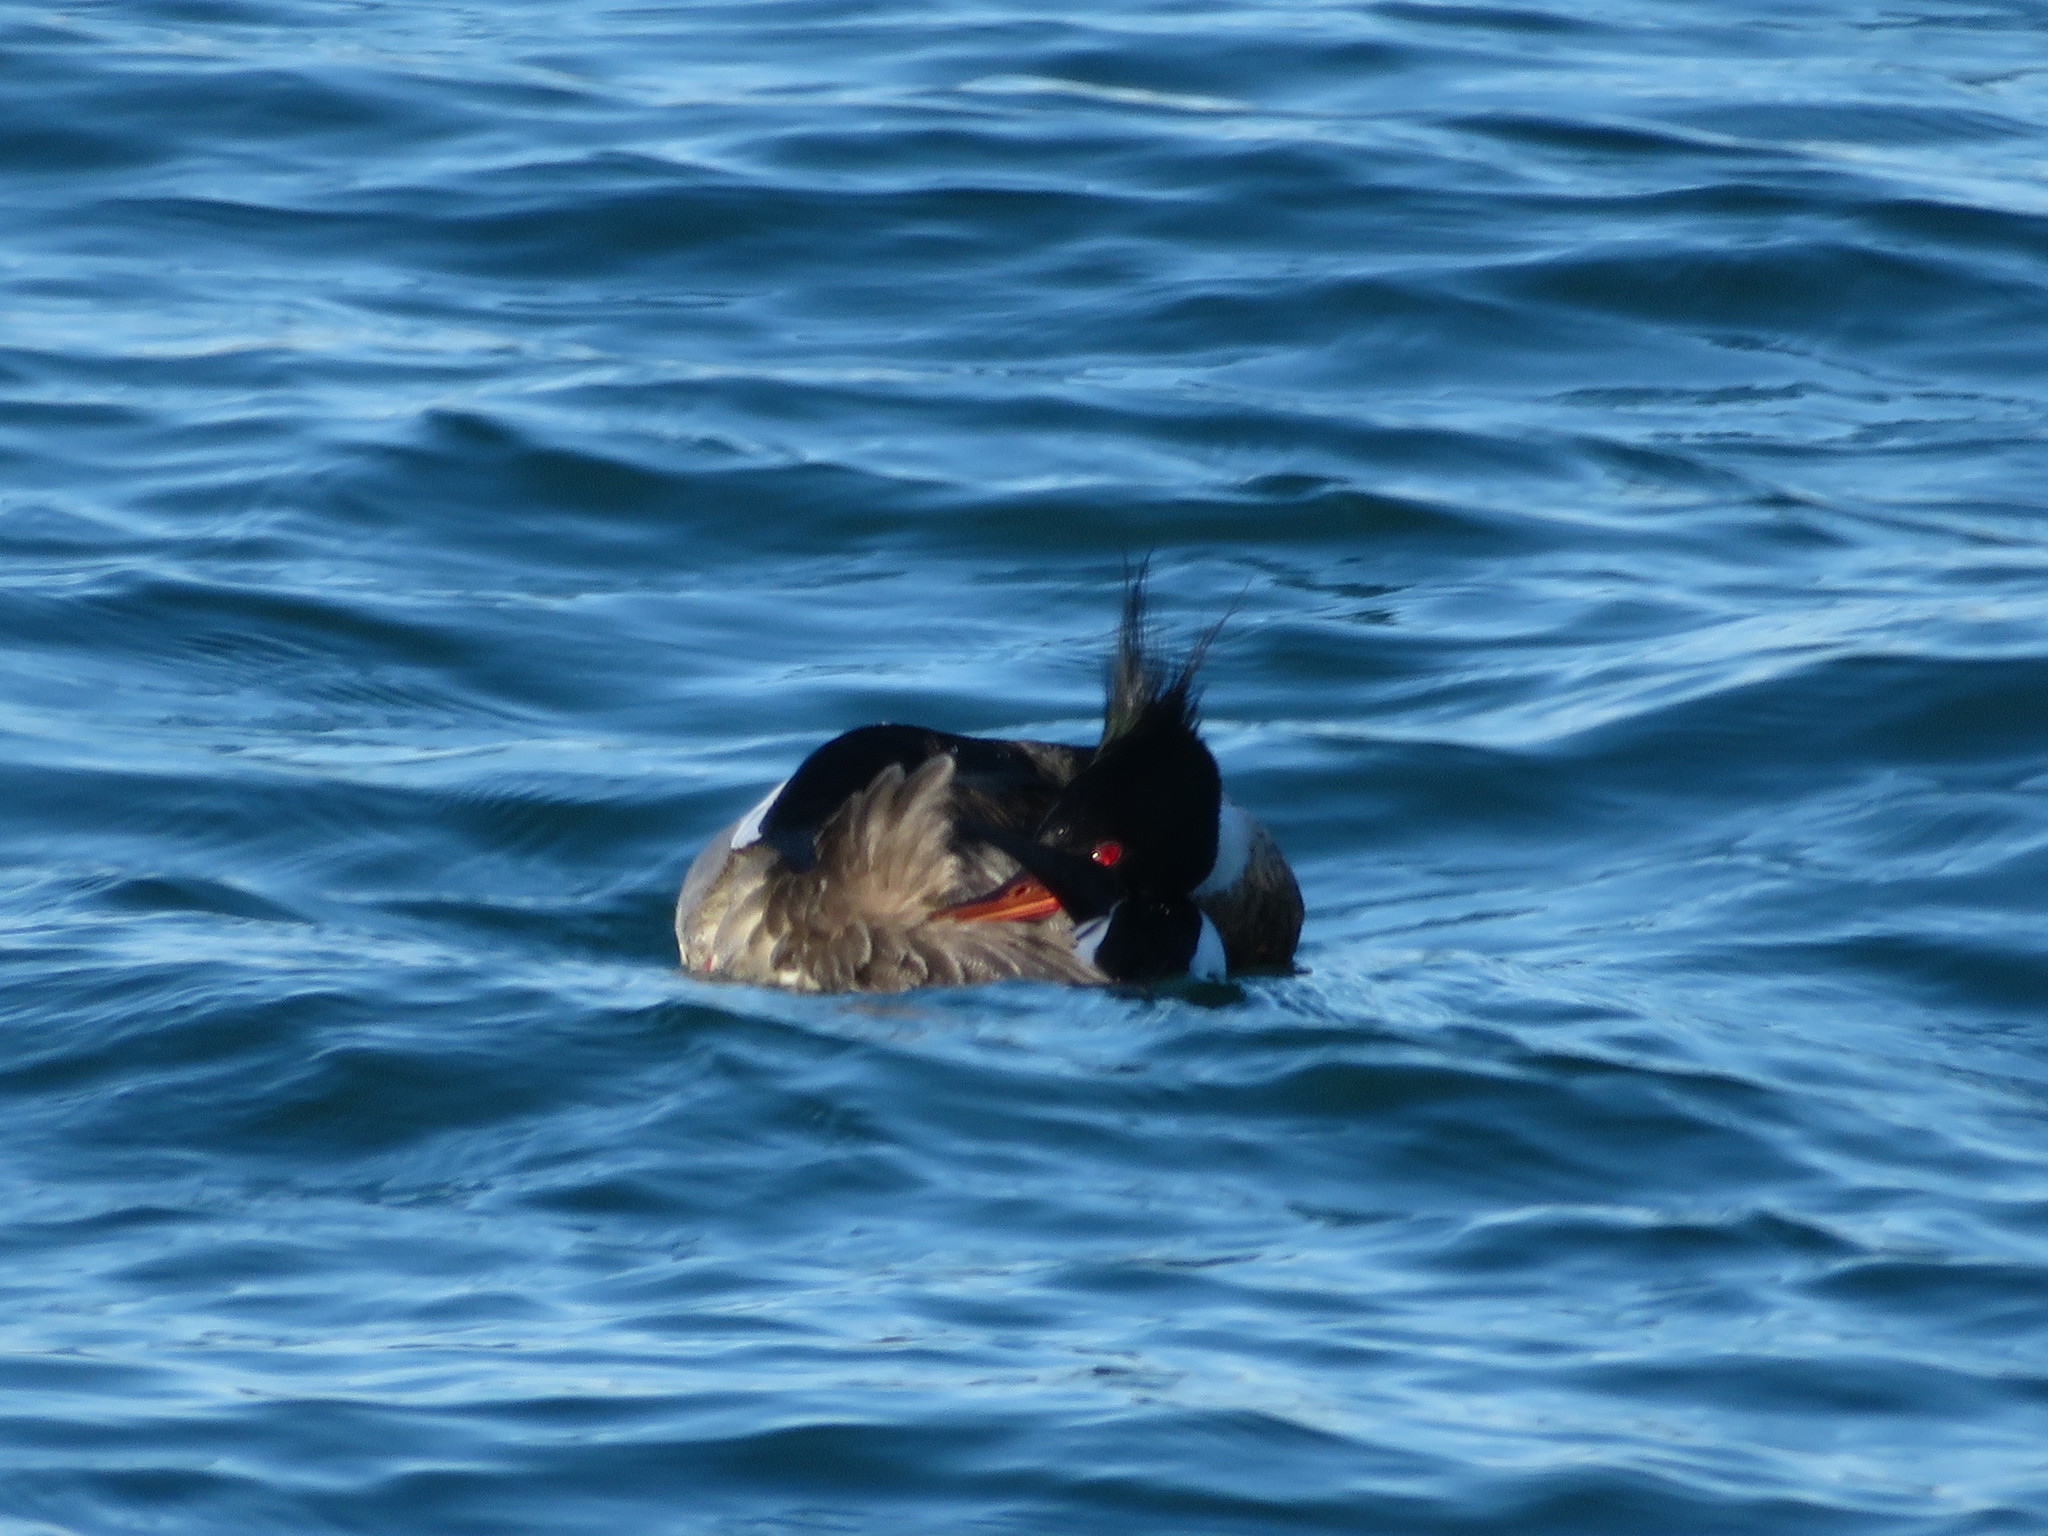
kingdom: Animalia
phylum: Chordata
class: Aves
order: Anseriformes
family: Anatidae
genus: Mergus
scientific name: Mergus serrator
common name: Red-breasted merganser
